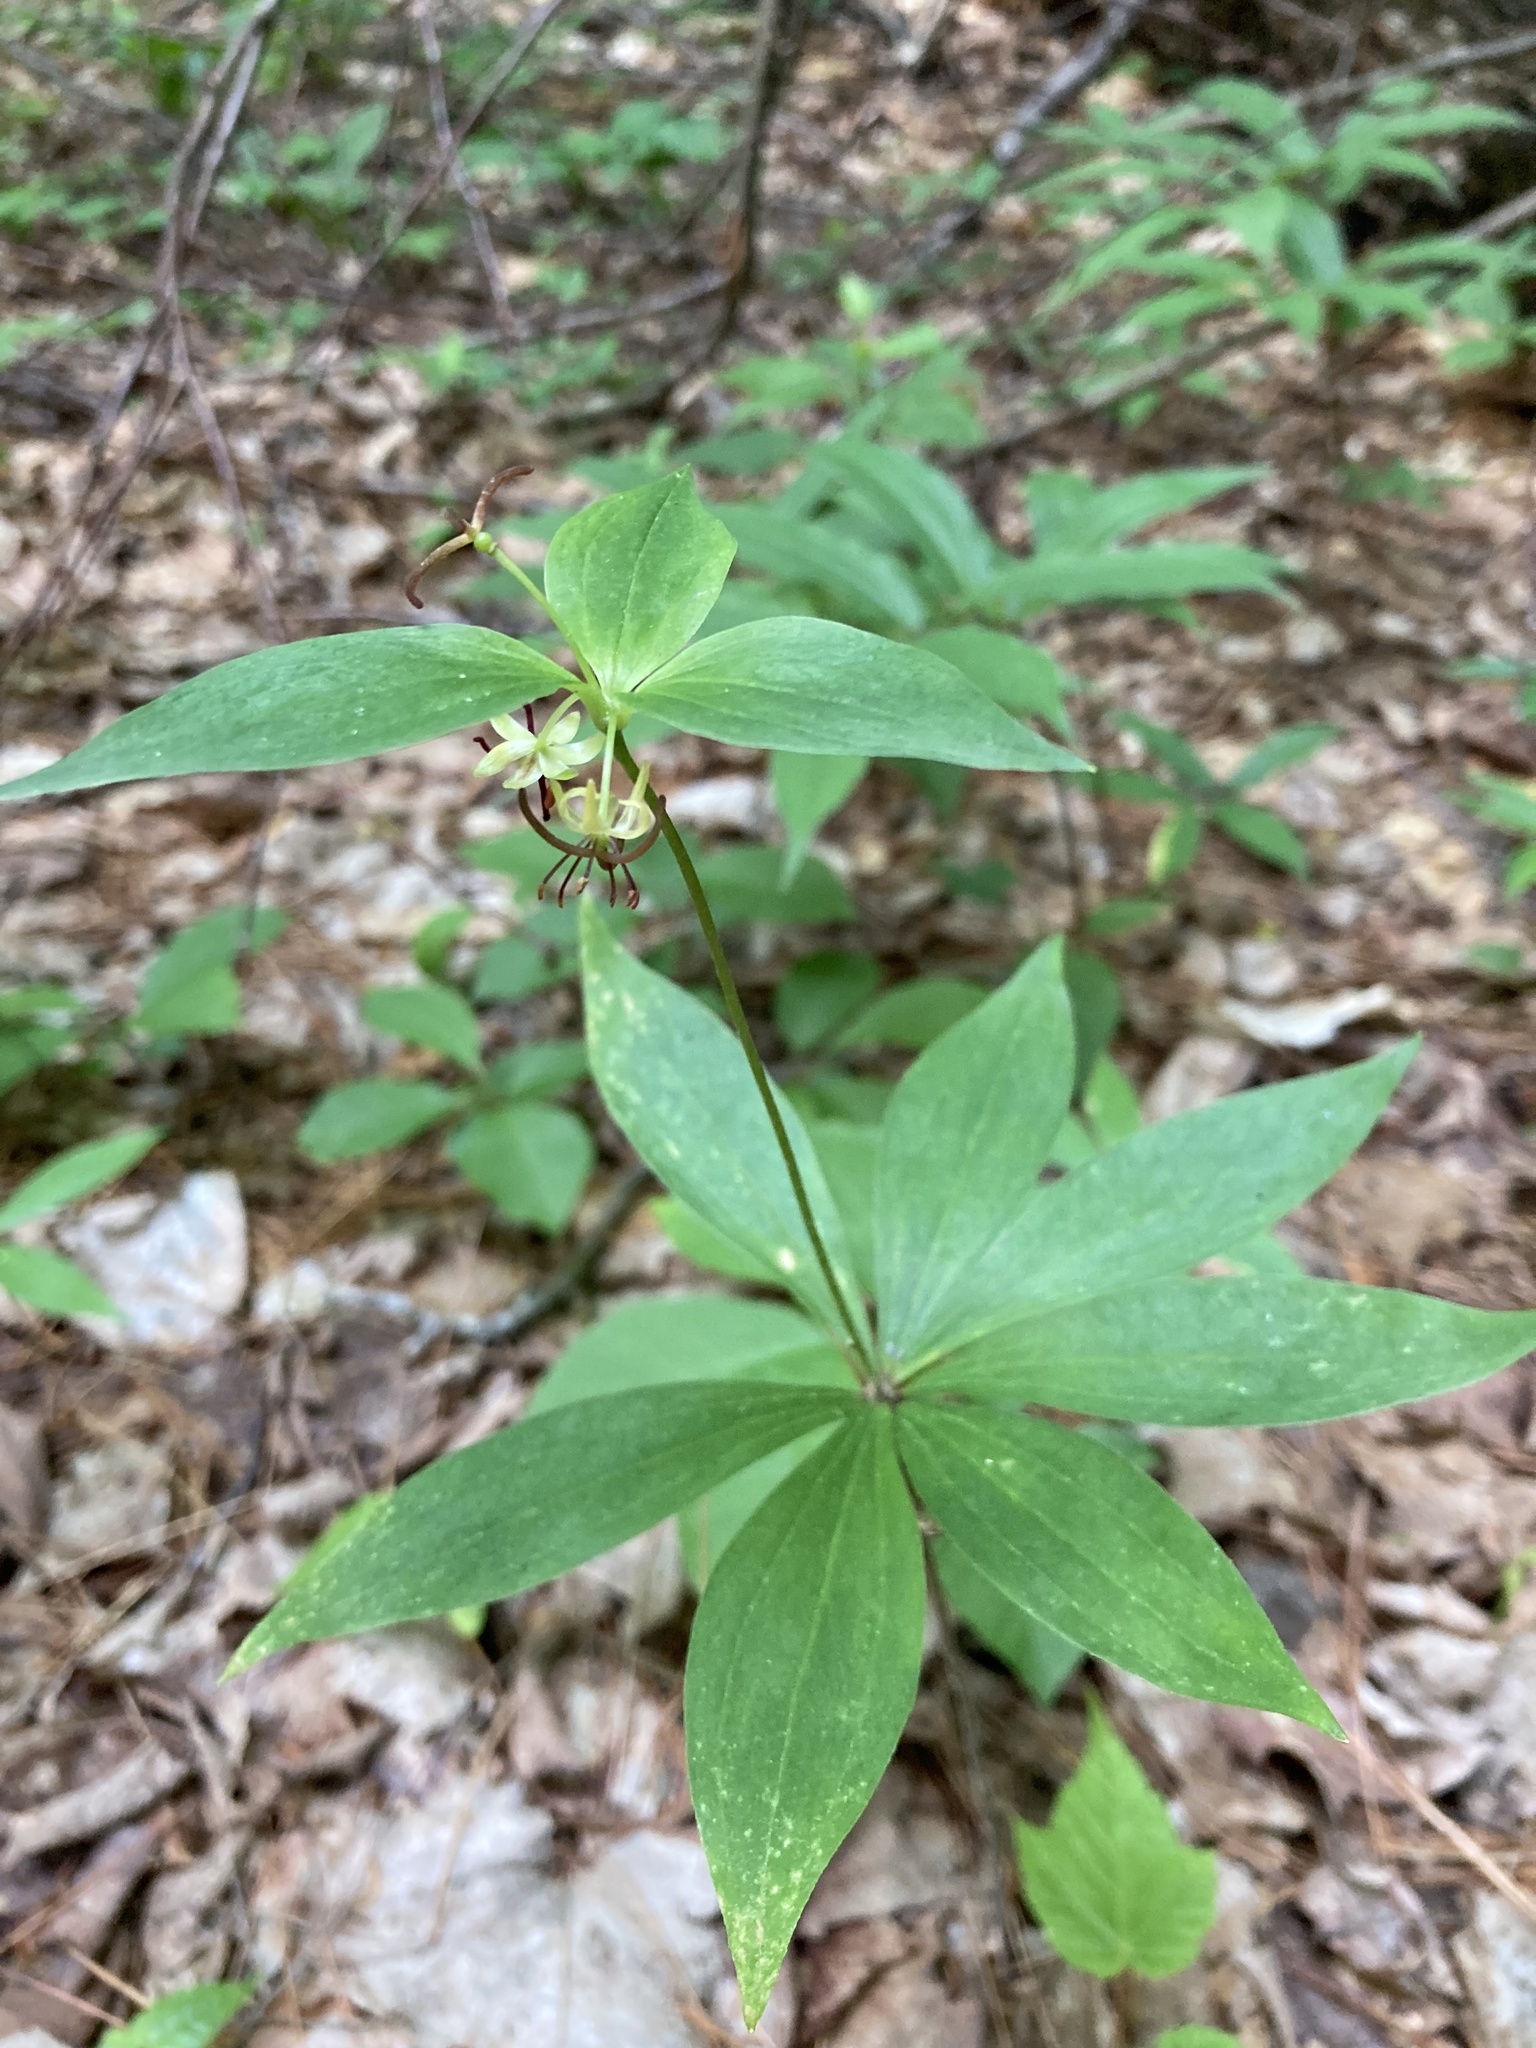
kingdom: Plantae
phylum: Tracheophyta
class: Liliopsida
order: Liliales
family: Liliaceae
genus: Medeola
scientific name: Medeola virginiana
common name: Indian cucumber-root
